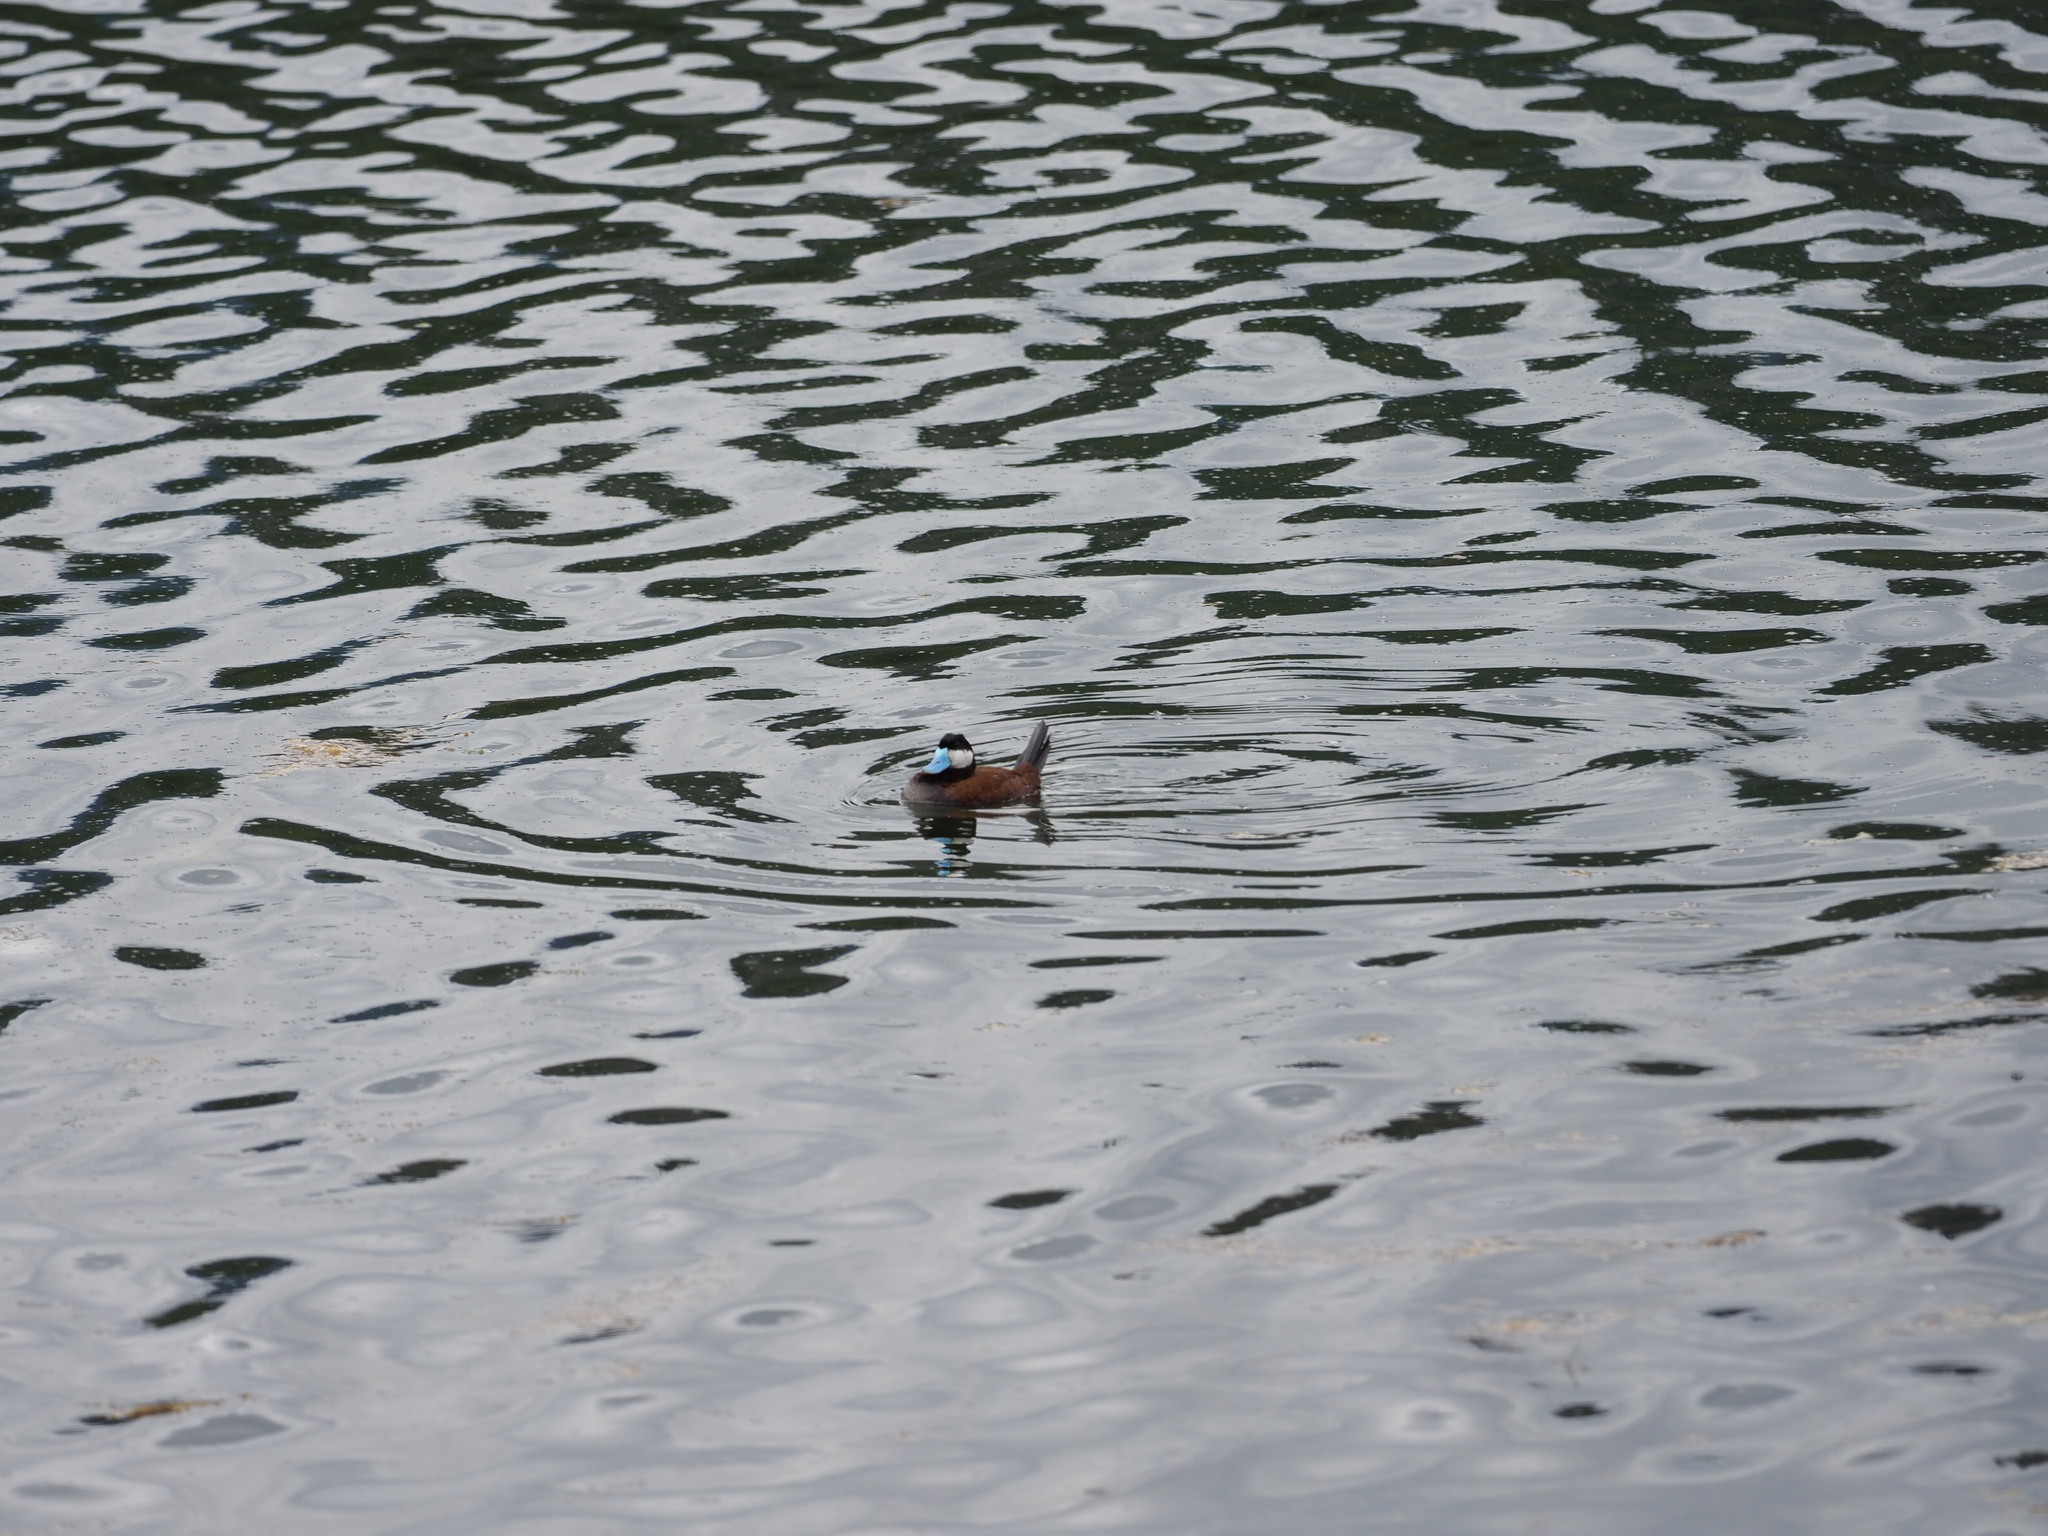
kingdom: Animalia
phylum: Chordata
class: Aves
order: Anseriformes
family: Anatidae
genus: Oxyura
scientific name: Oxyura jamaicensis
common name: Ruddy duck
